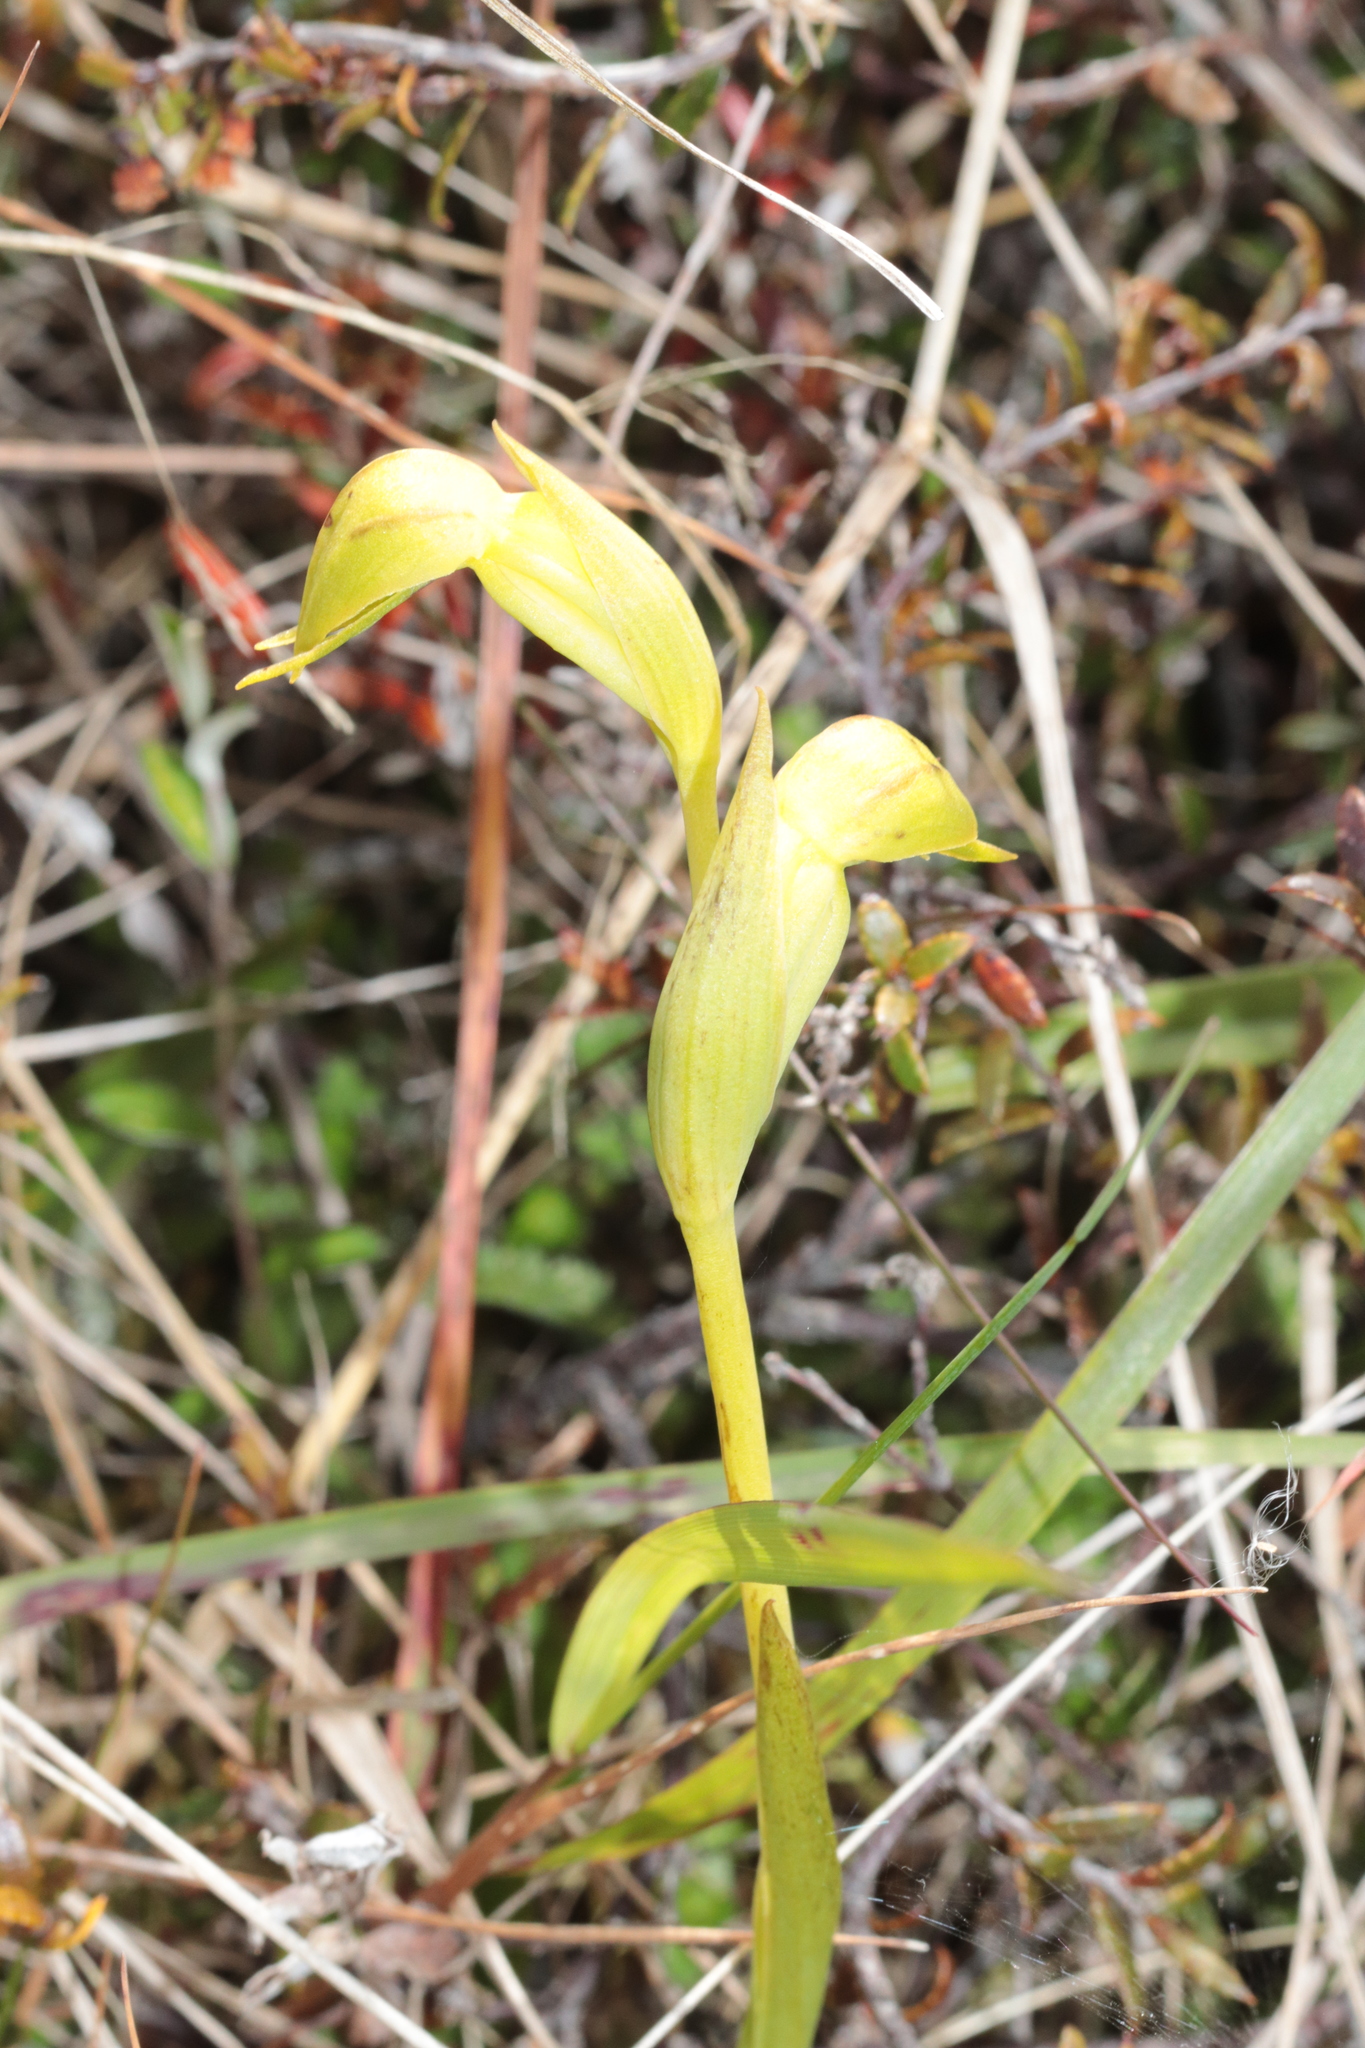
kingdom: Plantae
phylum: Tracheophyta
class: Liliopsida
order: Asparagales
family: Orchidaceae
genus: Waireia
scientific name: Waireia stenopetala
